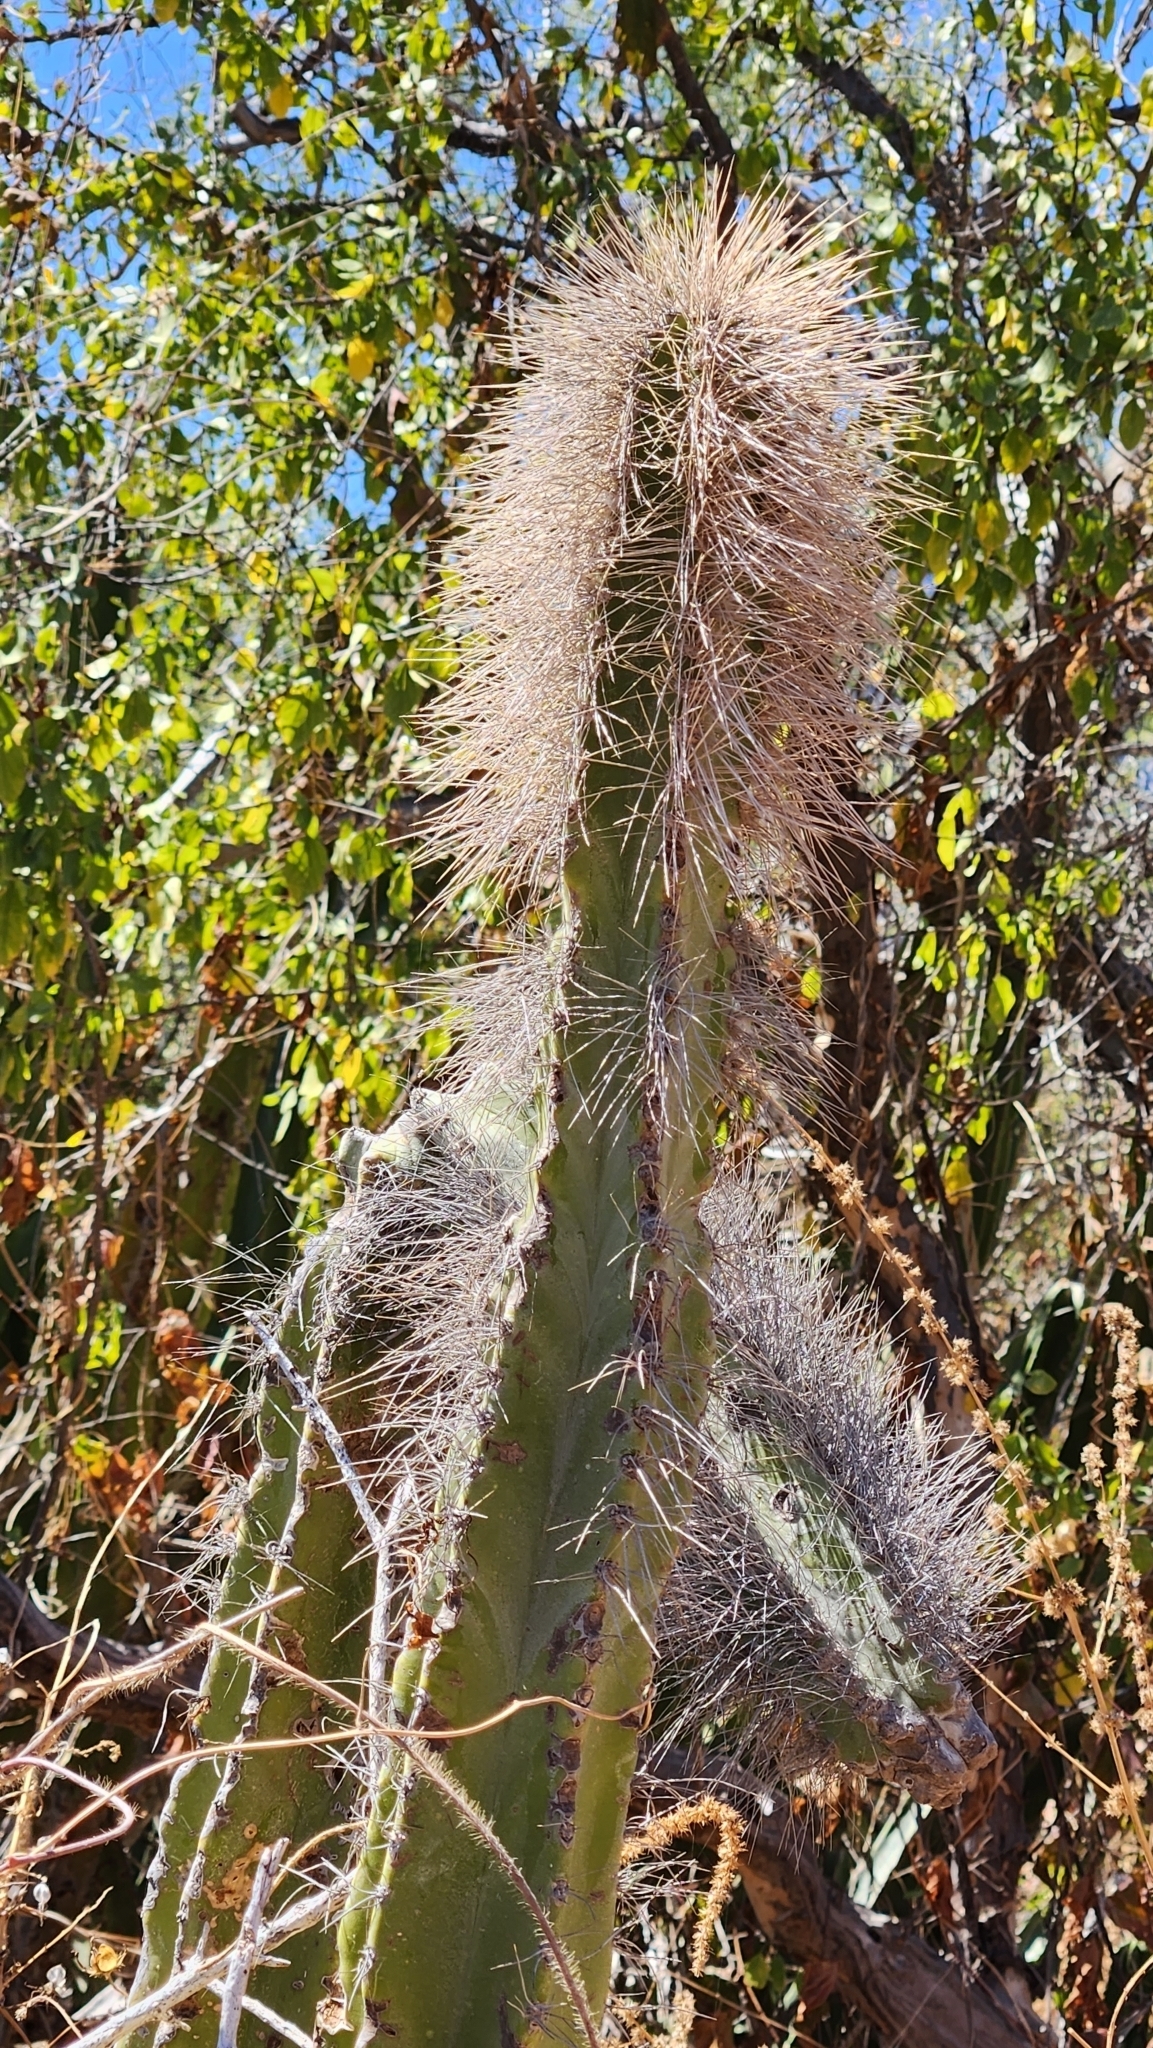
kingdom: Plantae
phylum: Tracheophyta
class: Magnoliopsida
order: Caryophyllales
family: Cactaceae
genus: Pachycereus
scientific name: Pachycereus schottii
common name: Senita cactus
